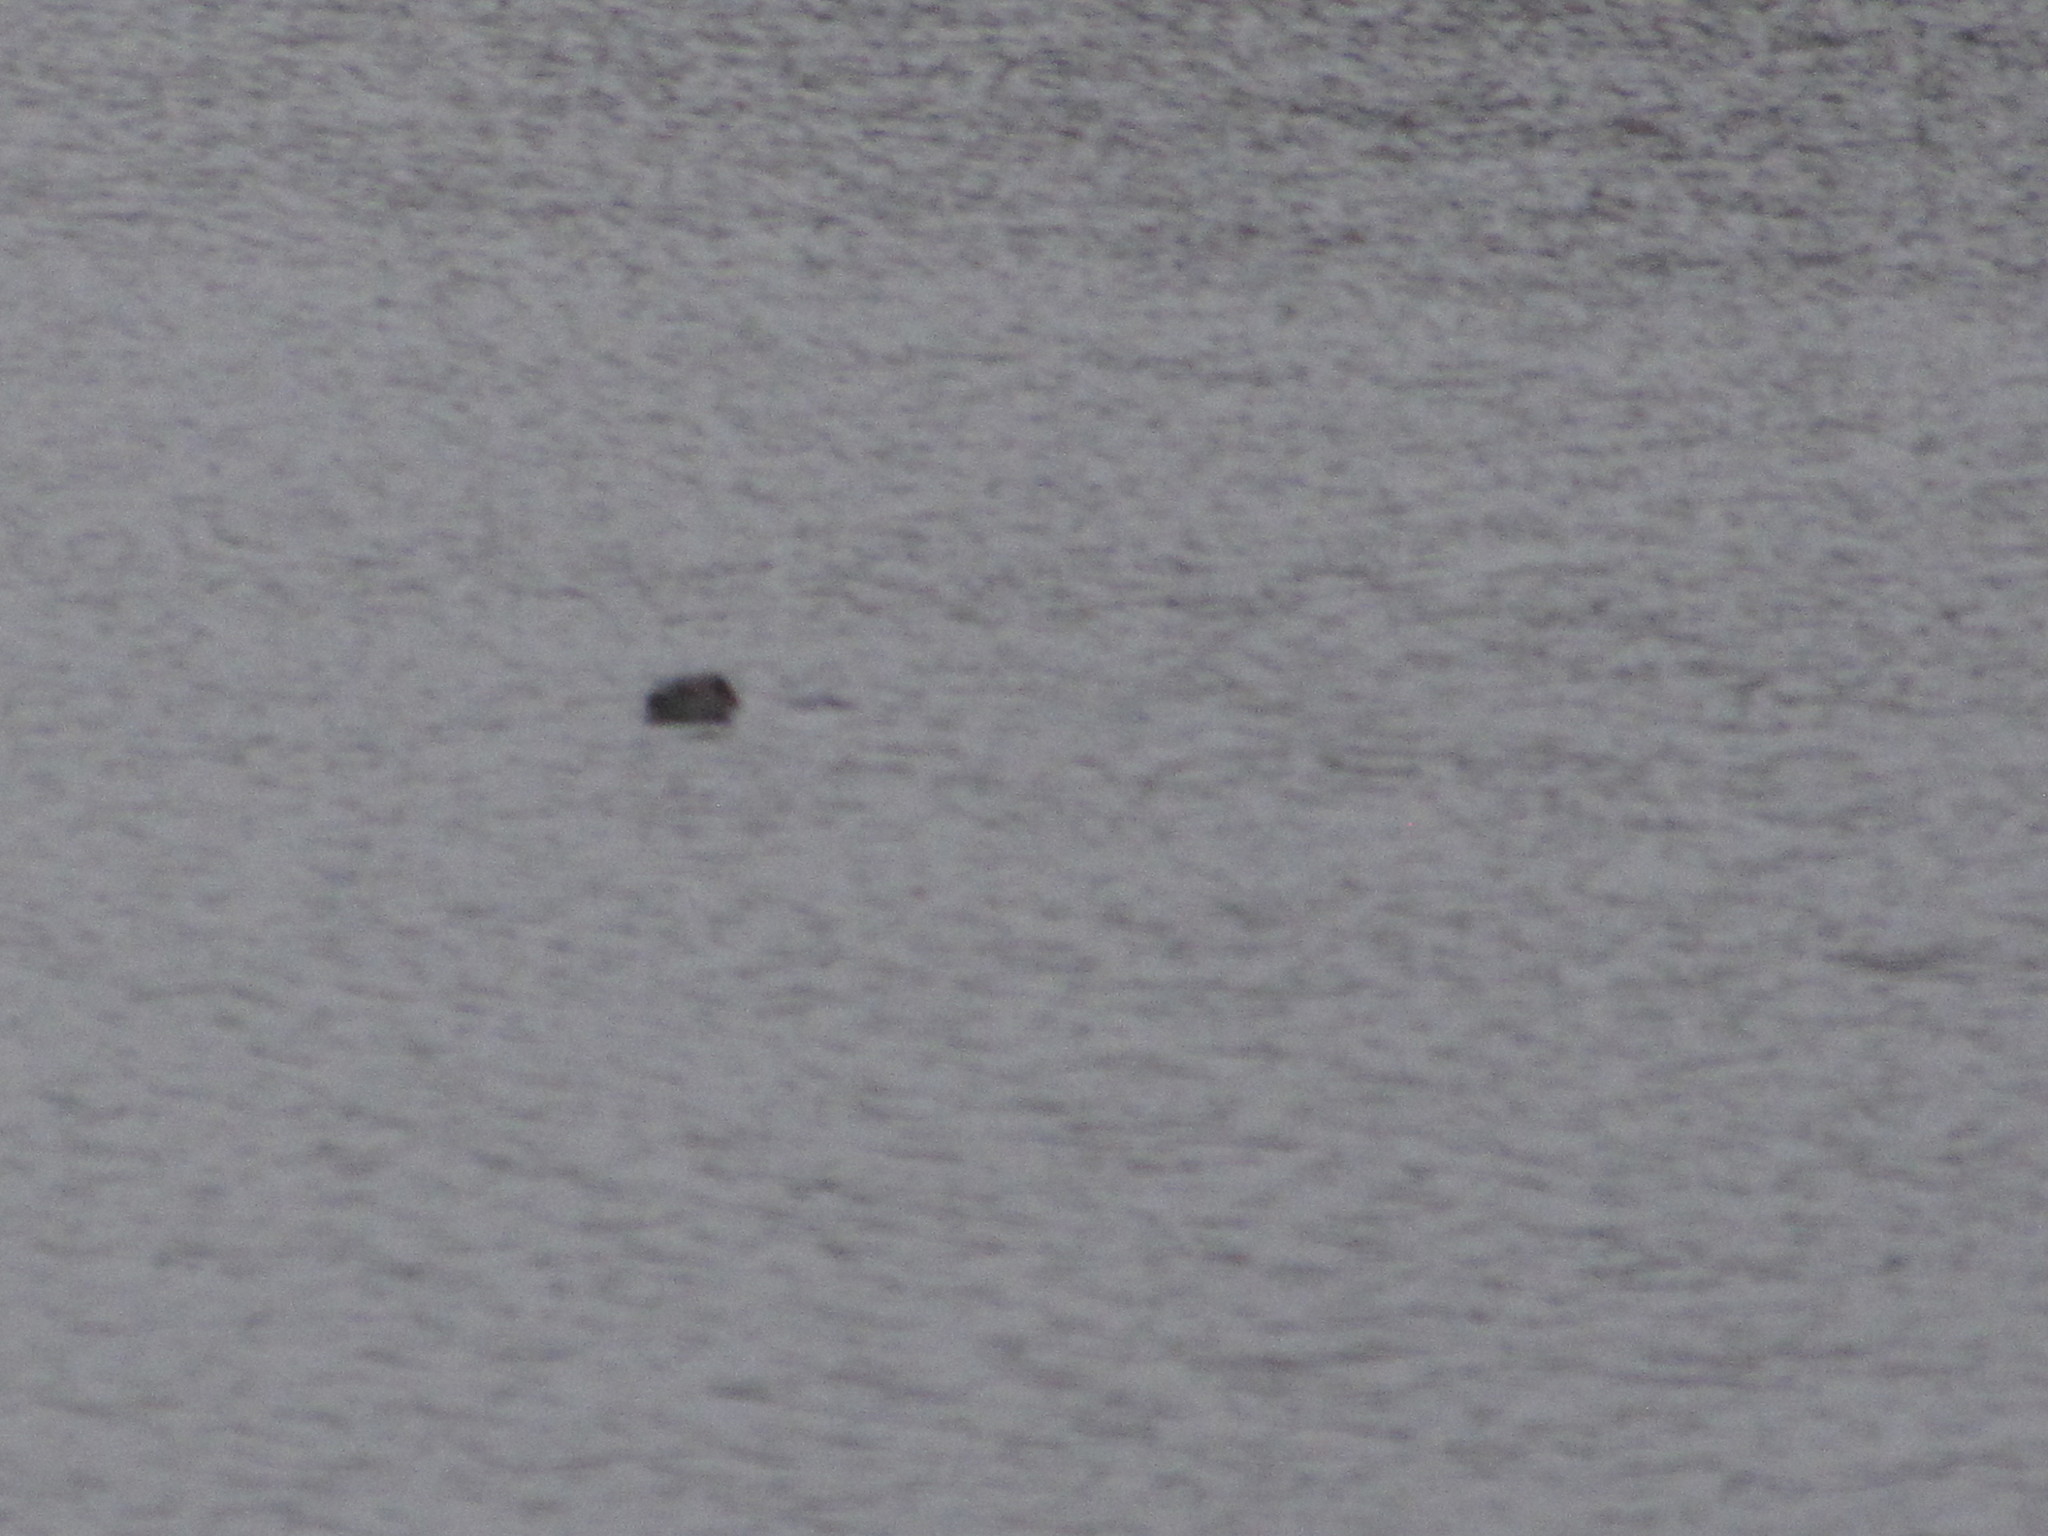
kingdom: Animalia
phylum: Chordata
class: Mammalia
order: Rodentia
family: Castoridae
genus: Castor
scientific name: Castor canadensis
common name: American beaver
